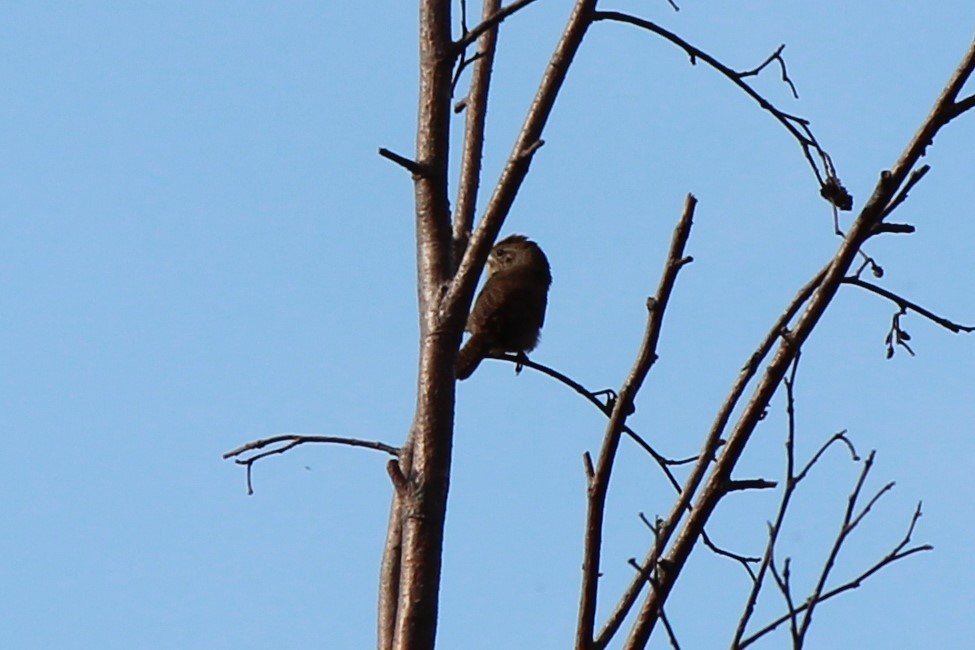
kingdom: Animalia
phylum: Chordata
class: Aves
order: Passeriformes
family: Troglodytidae
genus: Troglodytes
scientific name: Troglodytes aedon
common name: House wren
